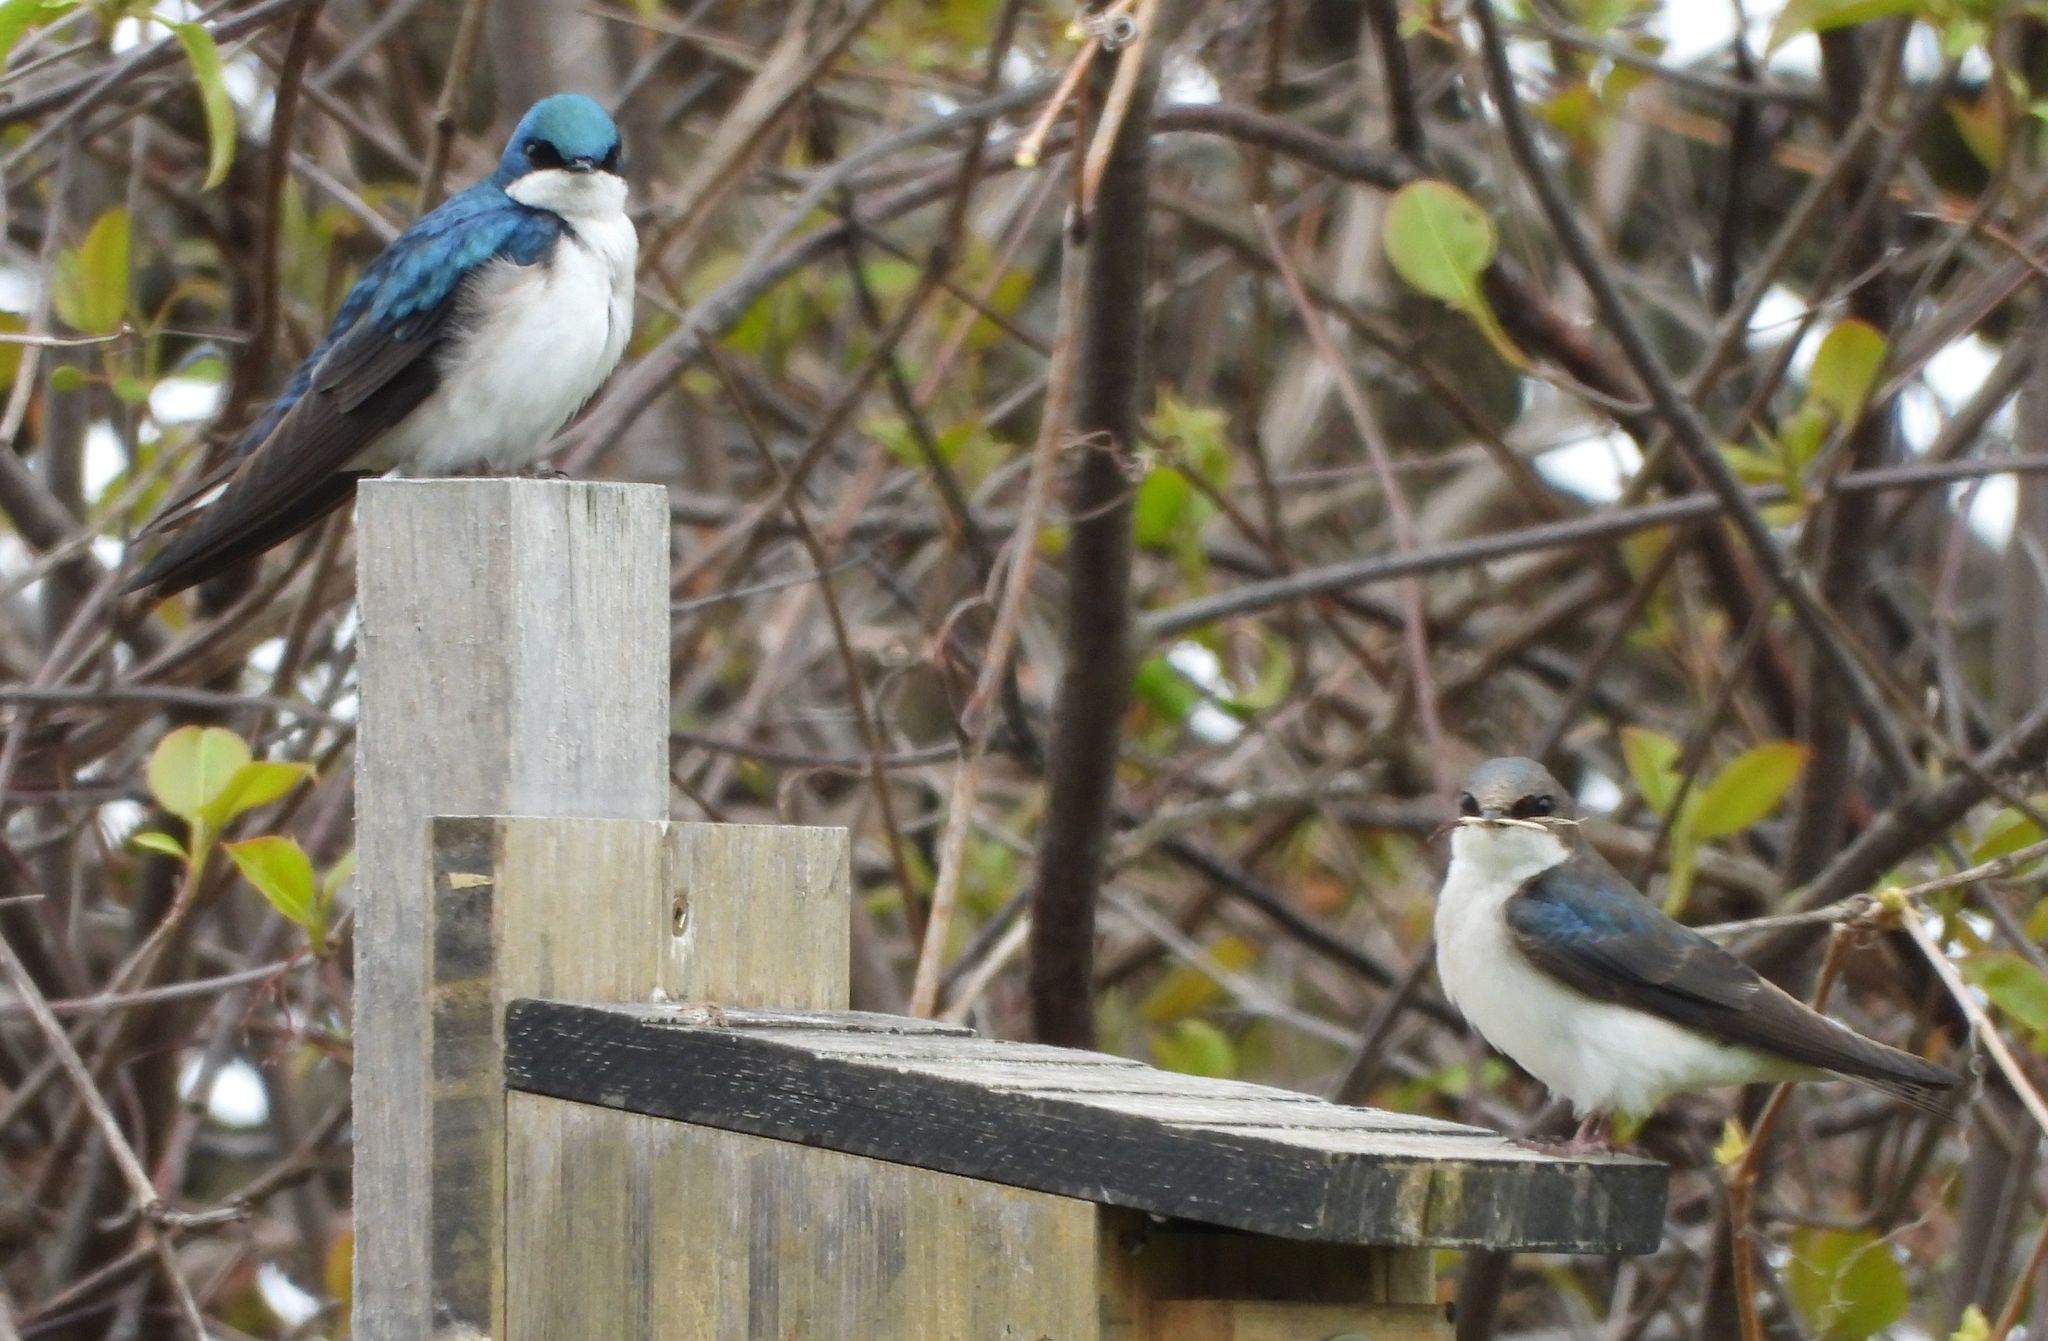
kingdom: Animalia
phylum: Chordata
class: Aves
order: Passeriformes
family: Hirundinidae
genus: Tachycineta
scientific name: Tachycineta bicolor
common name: Tree swallow
